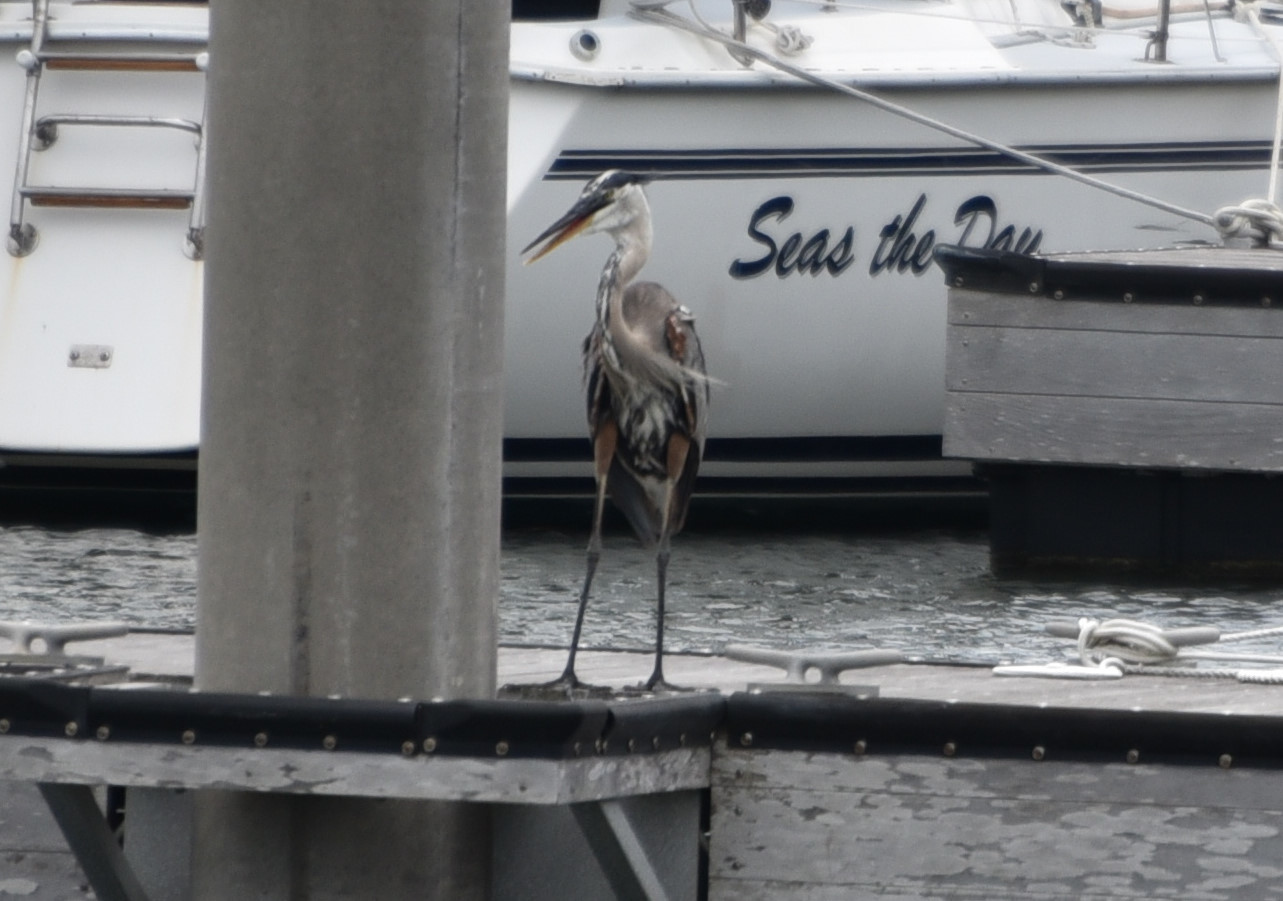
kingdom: Animalia
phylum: Chordata
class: Aves
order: Pelecaniformes
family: Ardeidae
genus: Ardea
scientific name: Ardea herodias
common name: Great blue heron
